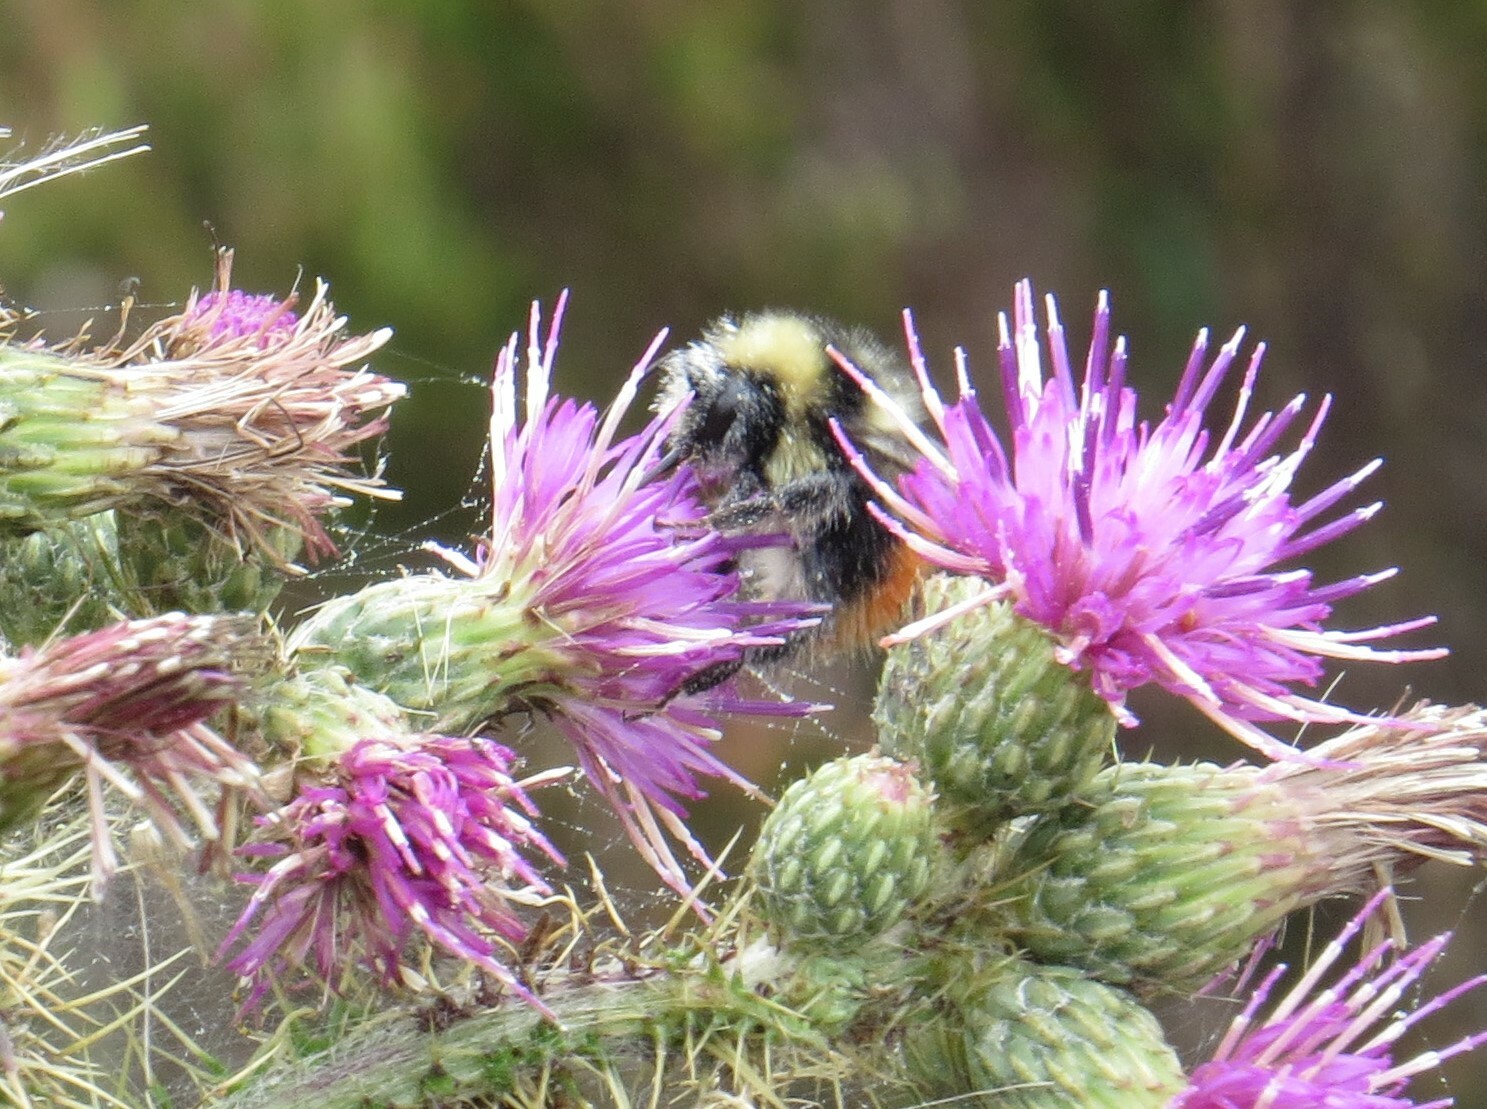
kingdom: Animalia
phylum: Arthropoda
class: Insecta
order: Hymenoptera
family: Apidae
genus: Bombus
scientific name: Bombus monticola
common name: Bilberry humble-bee
